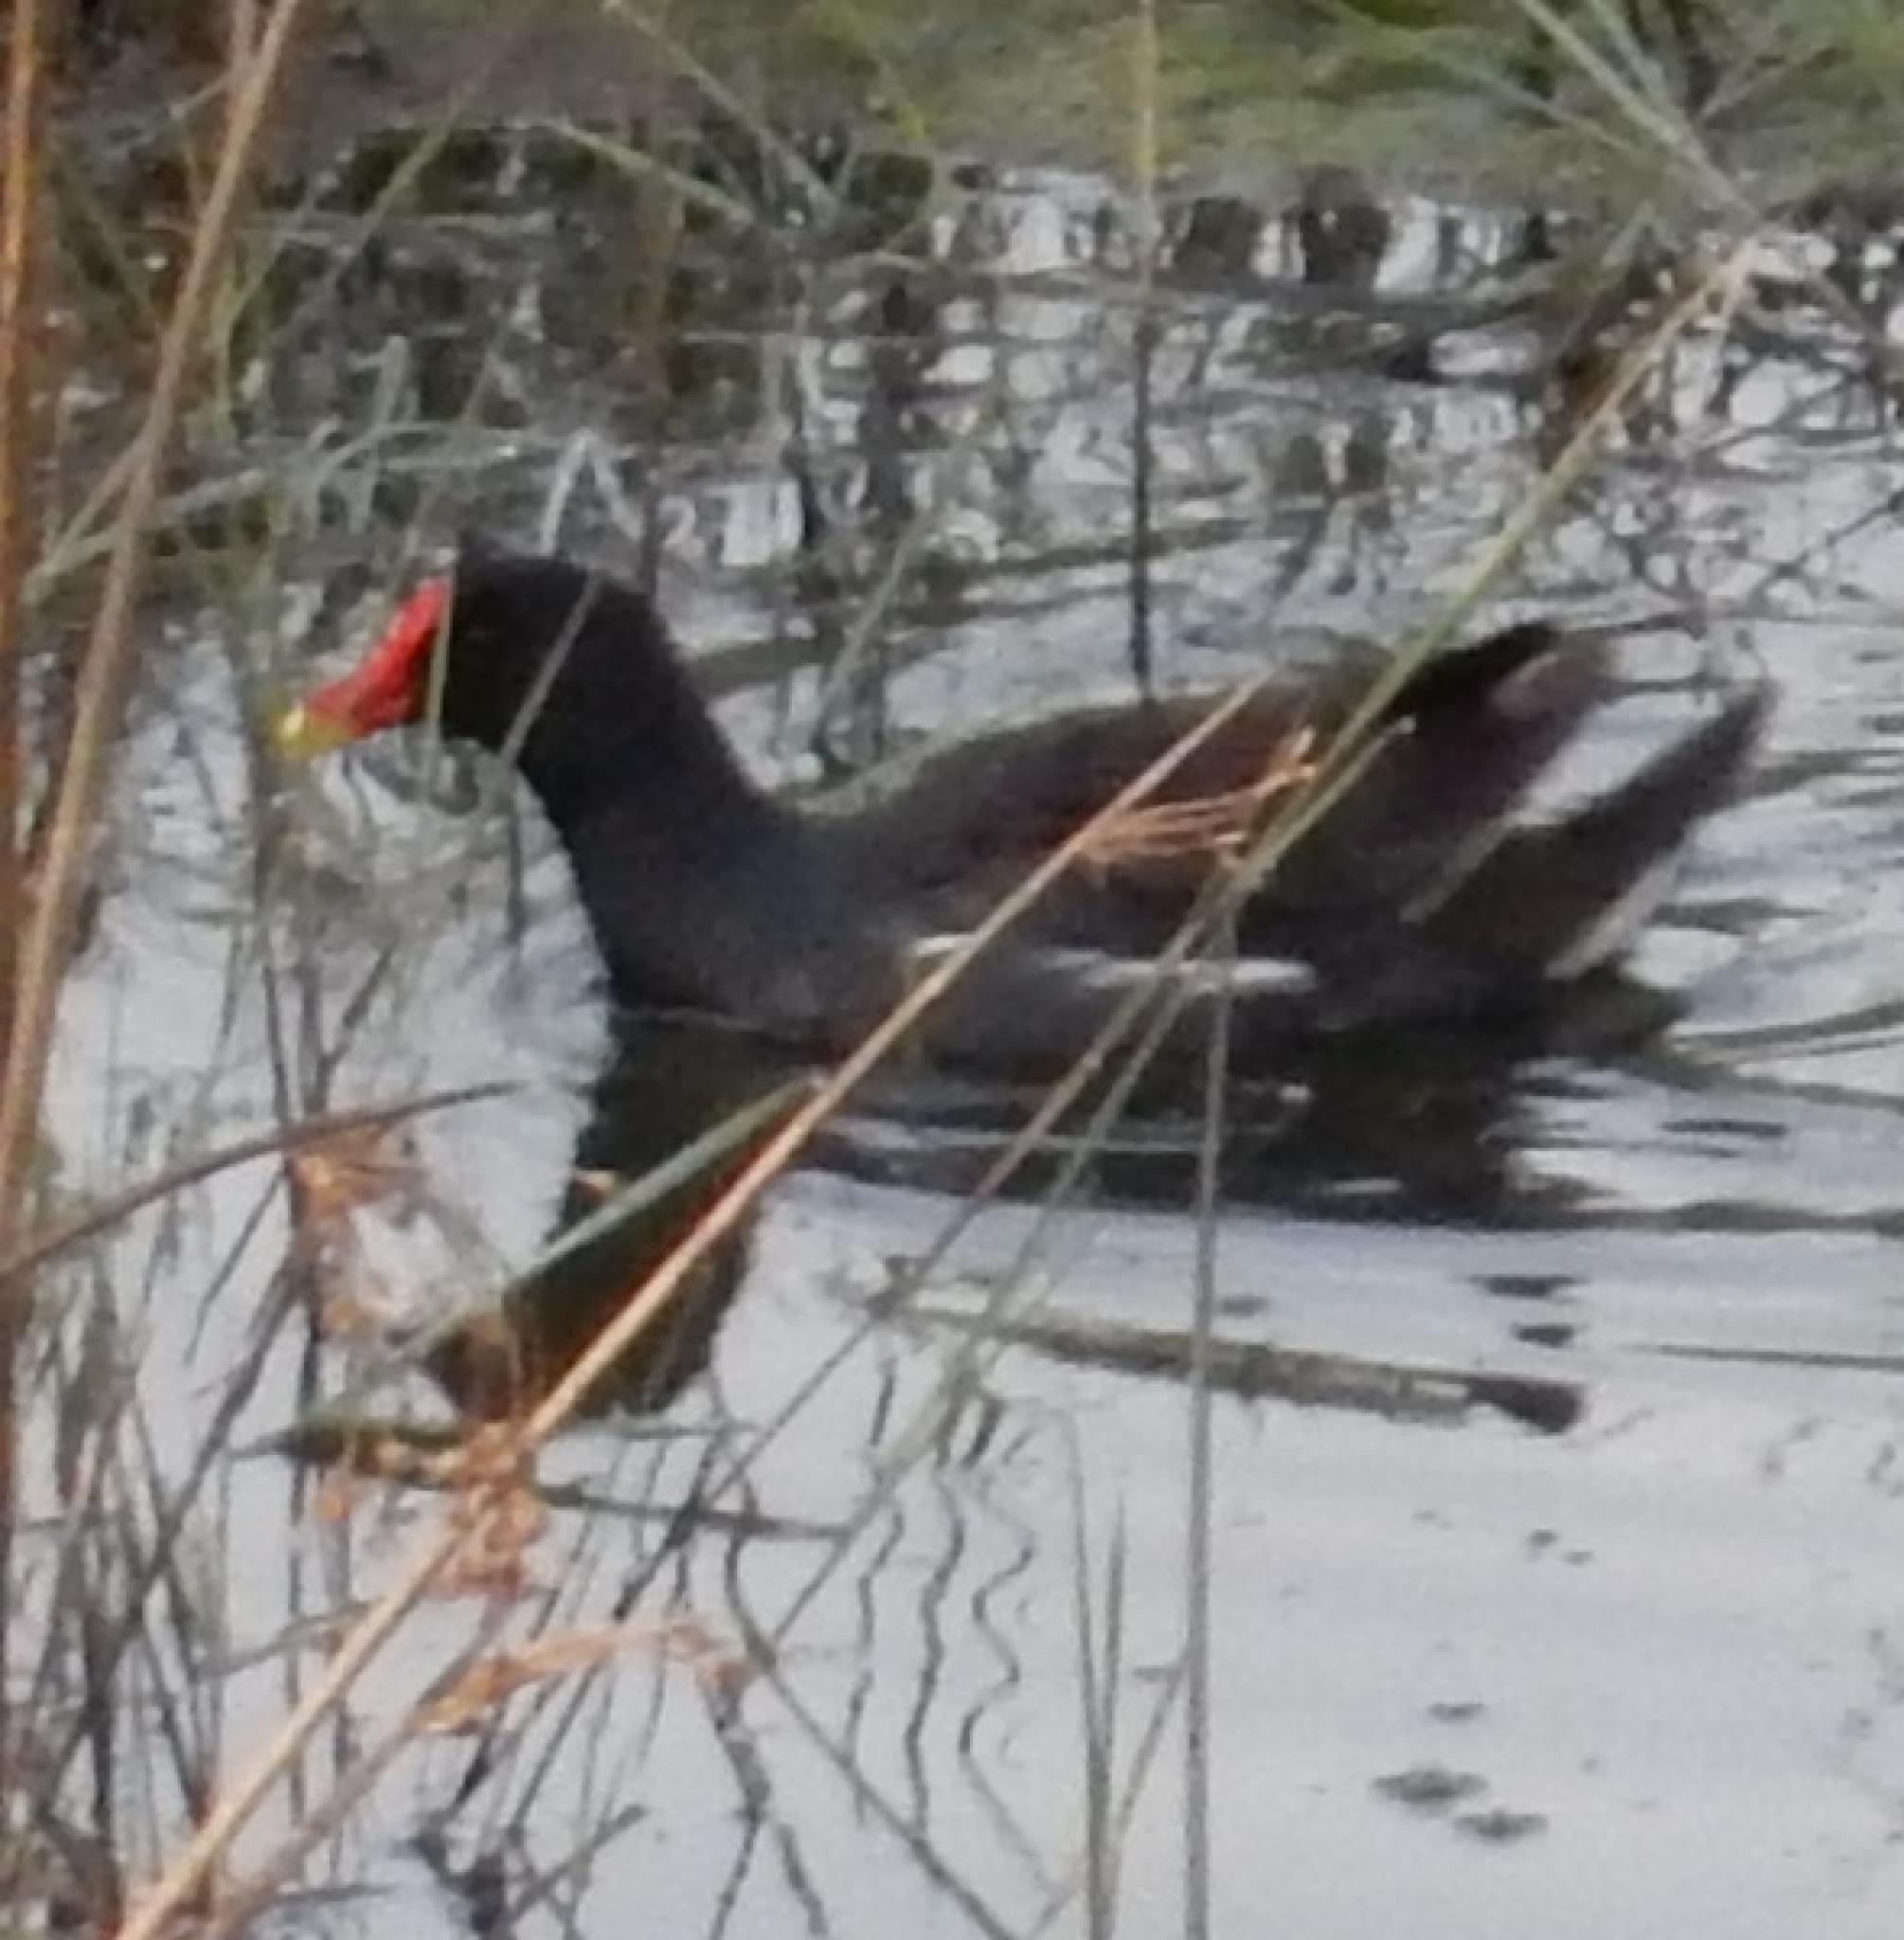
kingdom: Animalia
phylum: Chordata
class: Aves
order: Gruiformes
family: Rallidae
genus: Gallinula
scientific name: Gallinula chloropus
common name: Common moorhen
